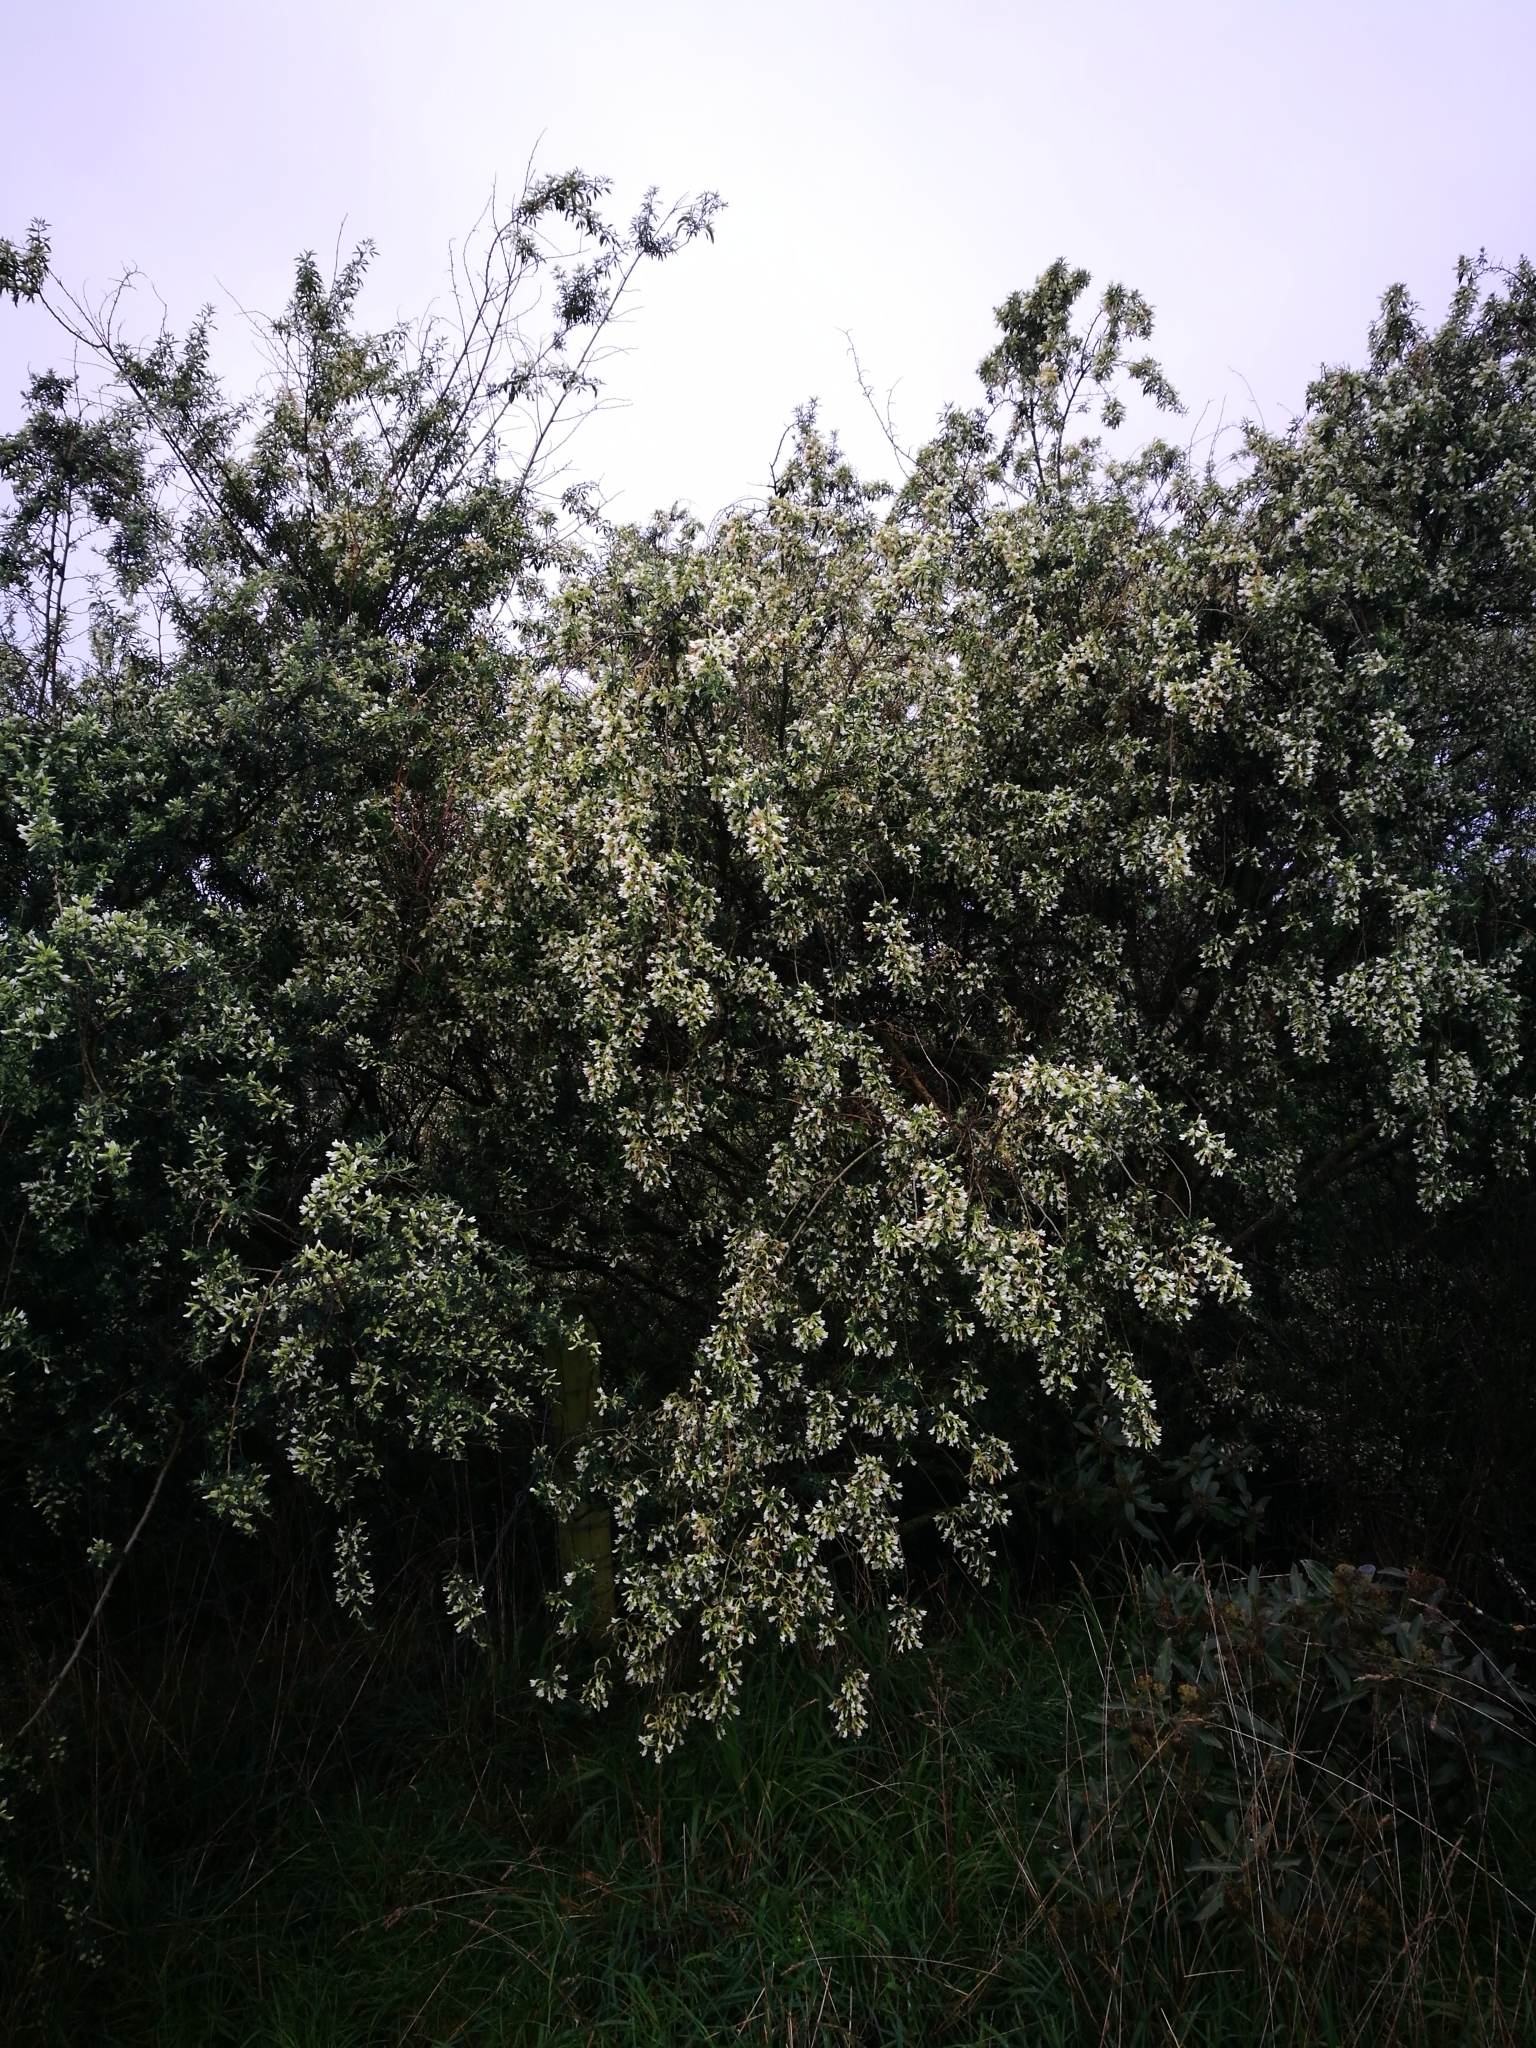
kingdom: Plantae
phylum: Tracheophyta
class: Magnoliopsida
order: Fabales
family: Fabaceae
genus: Chamaecytisus
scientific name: Chamaecytisus prolifer
